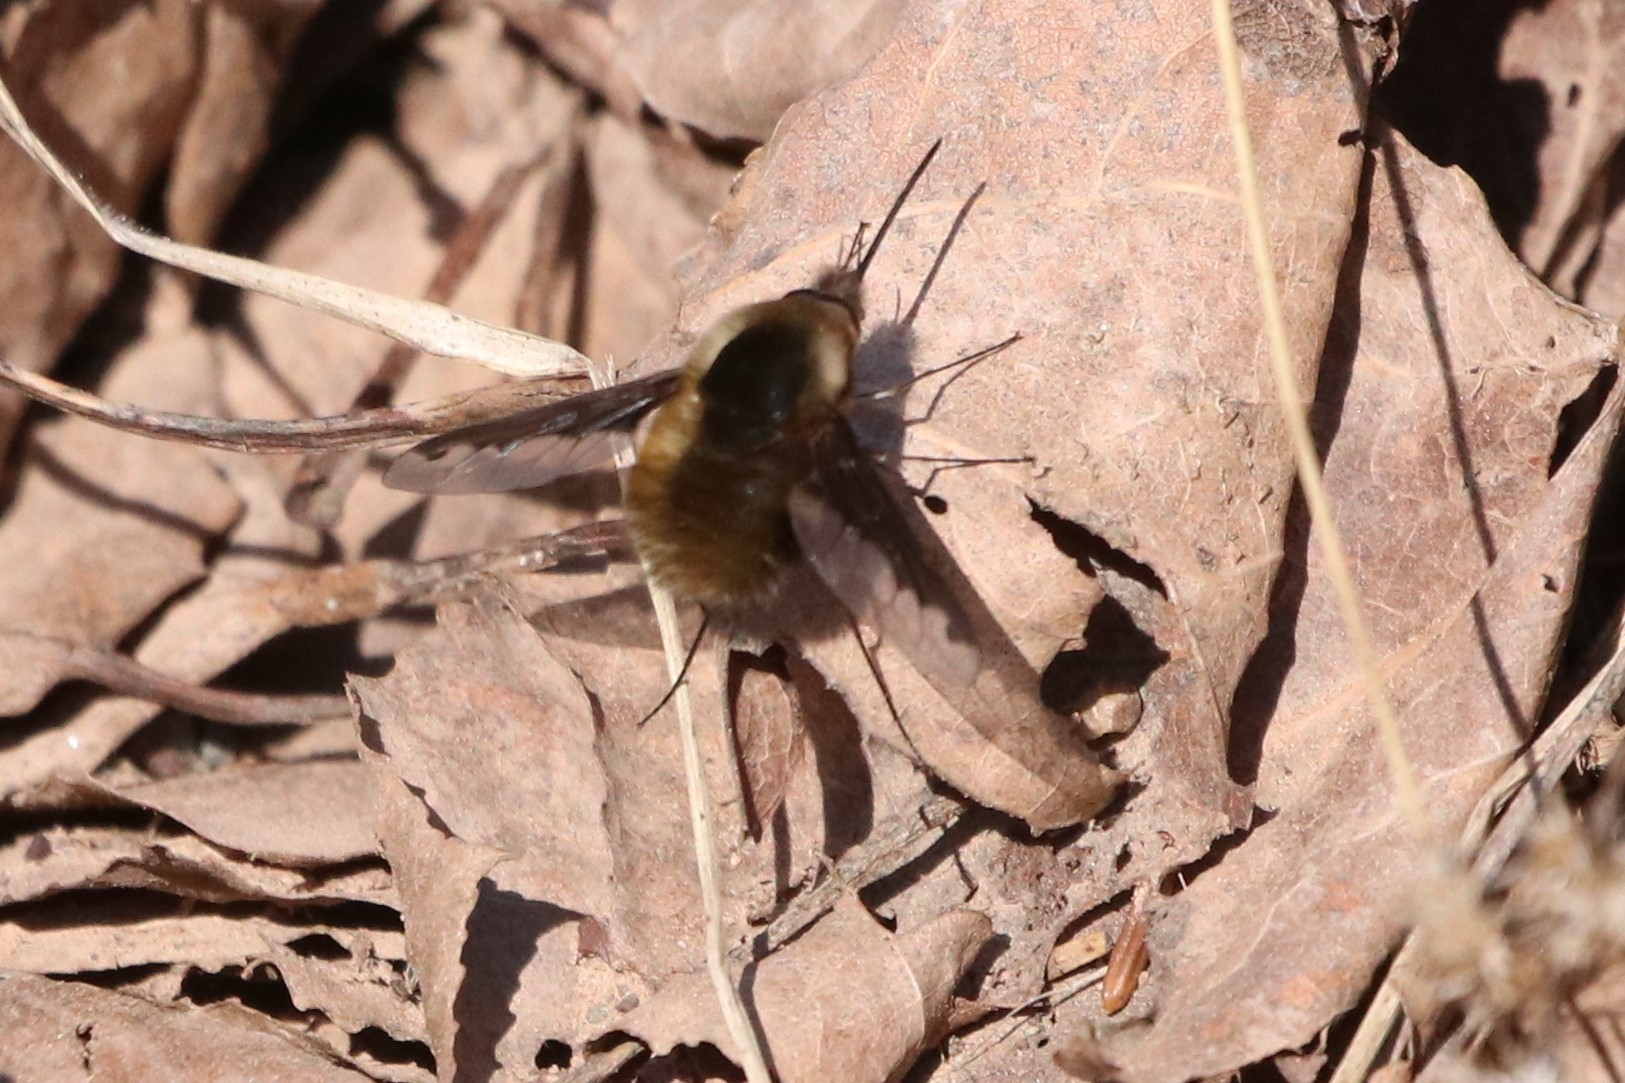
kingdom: Animalia
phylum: Arthropoda
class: Insecta
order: Diptera
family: Bombyliidae
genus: Bombylius
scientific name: Bombylius major
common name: Bee fly
